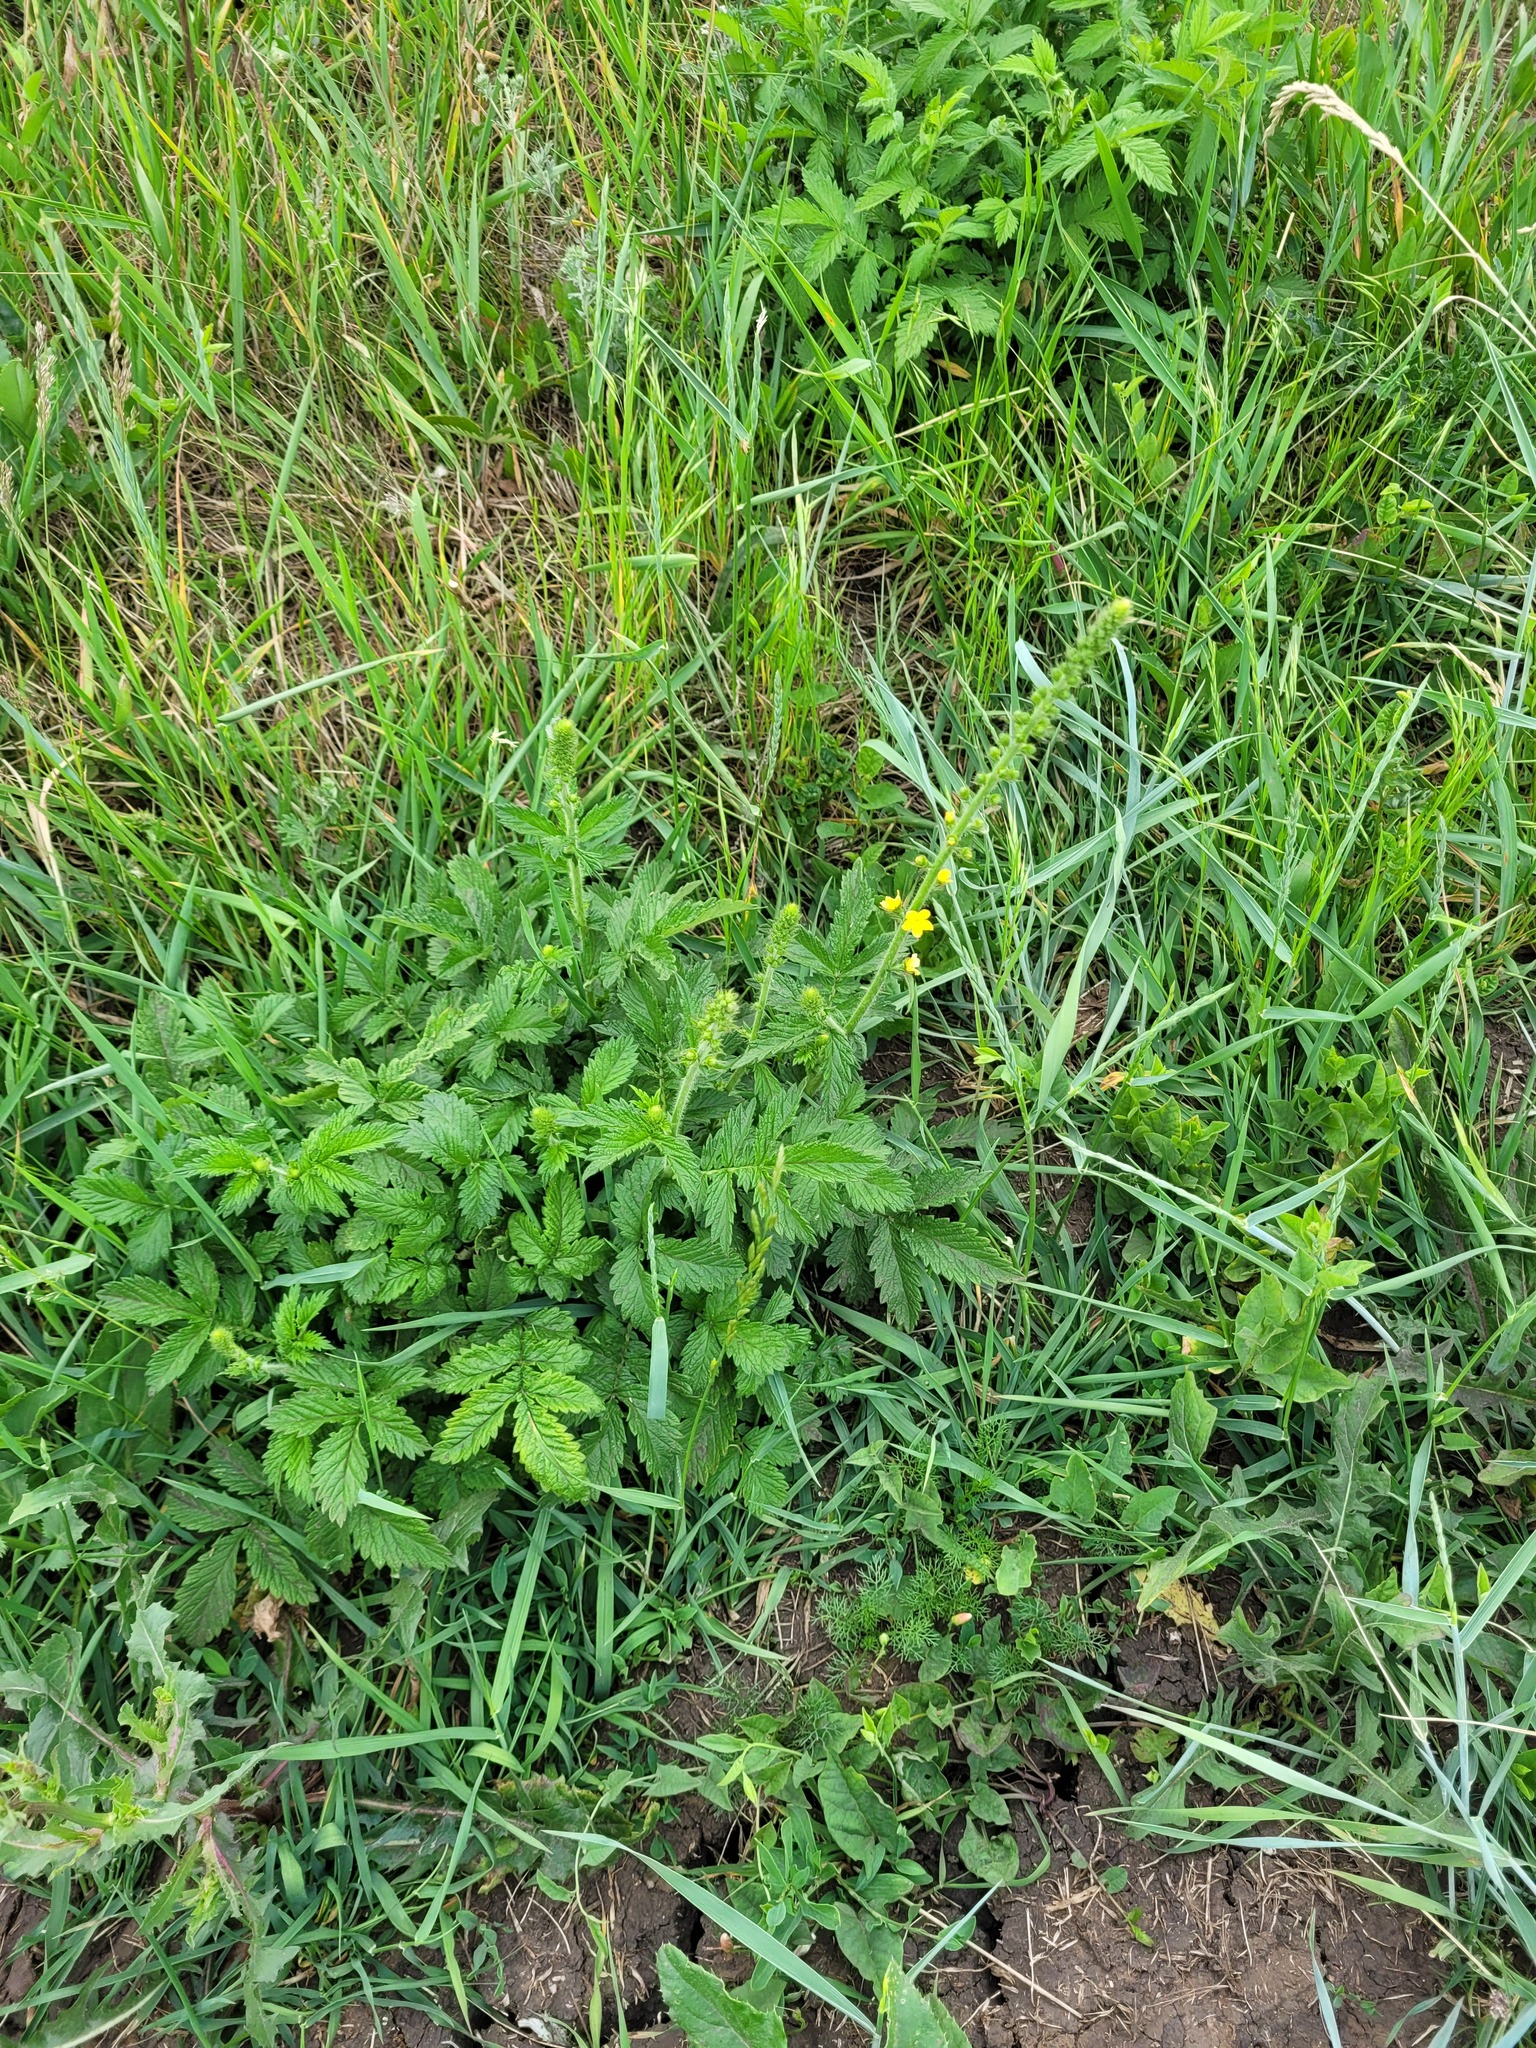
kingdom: Plantae
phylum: Tracheophyta
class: Magnoliopsida
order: Rosales
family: Rosaceae
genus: Agrimonia
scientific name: Agrimonia eupatoria
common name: Agrimony
